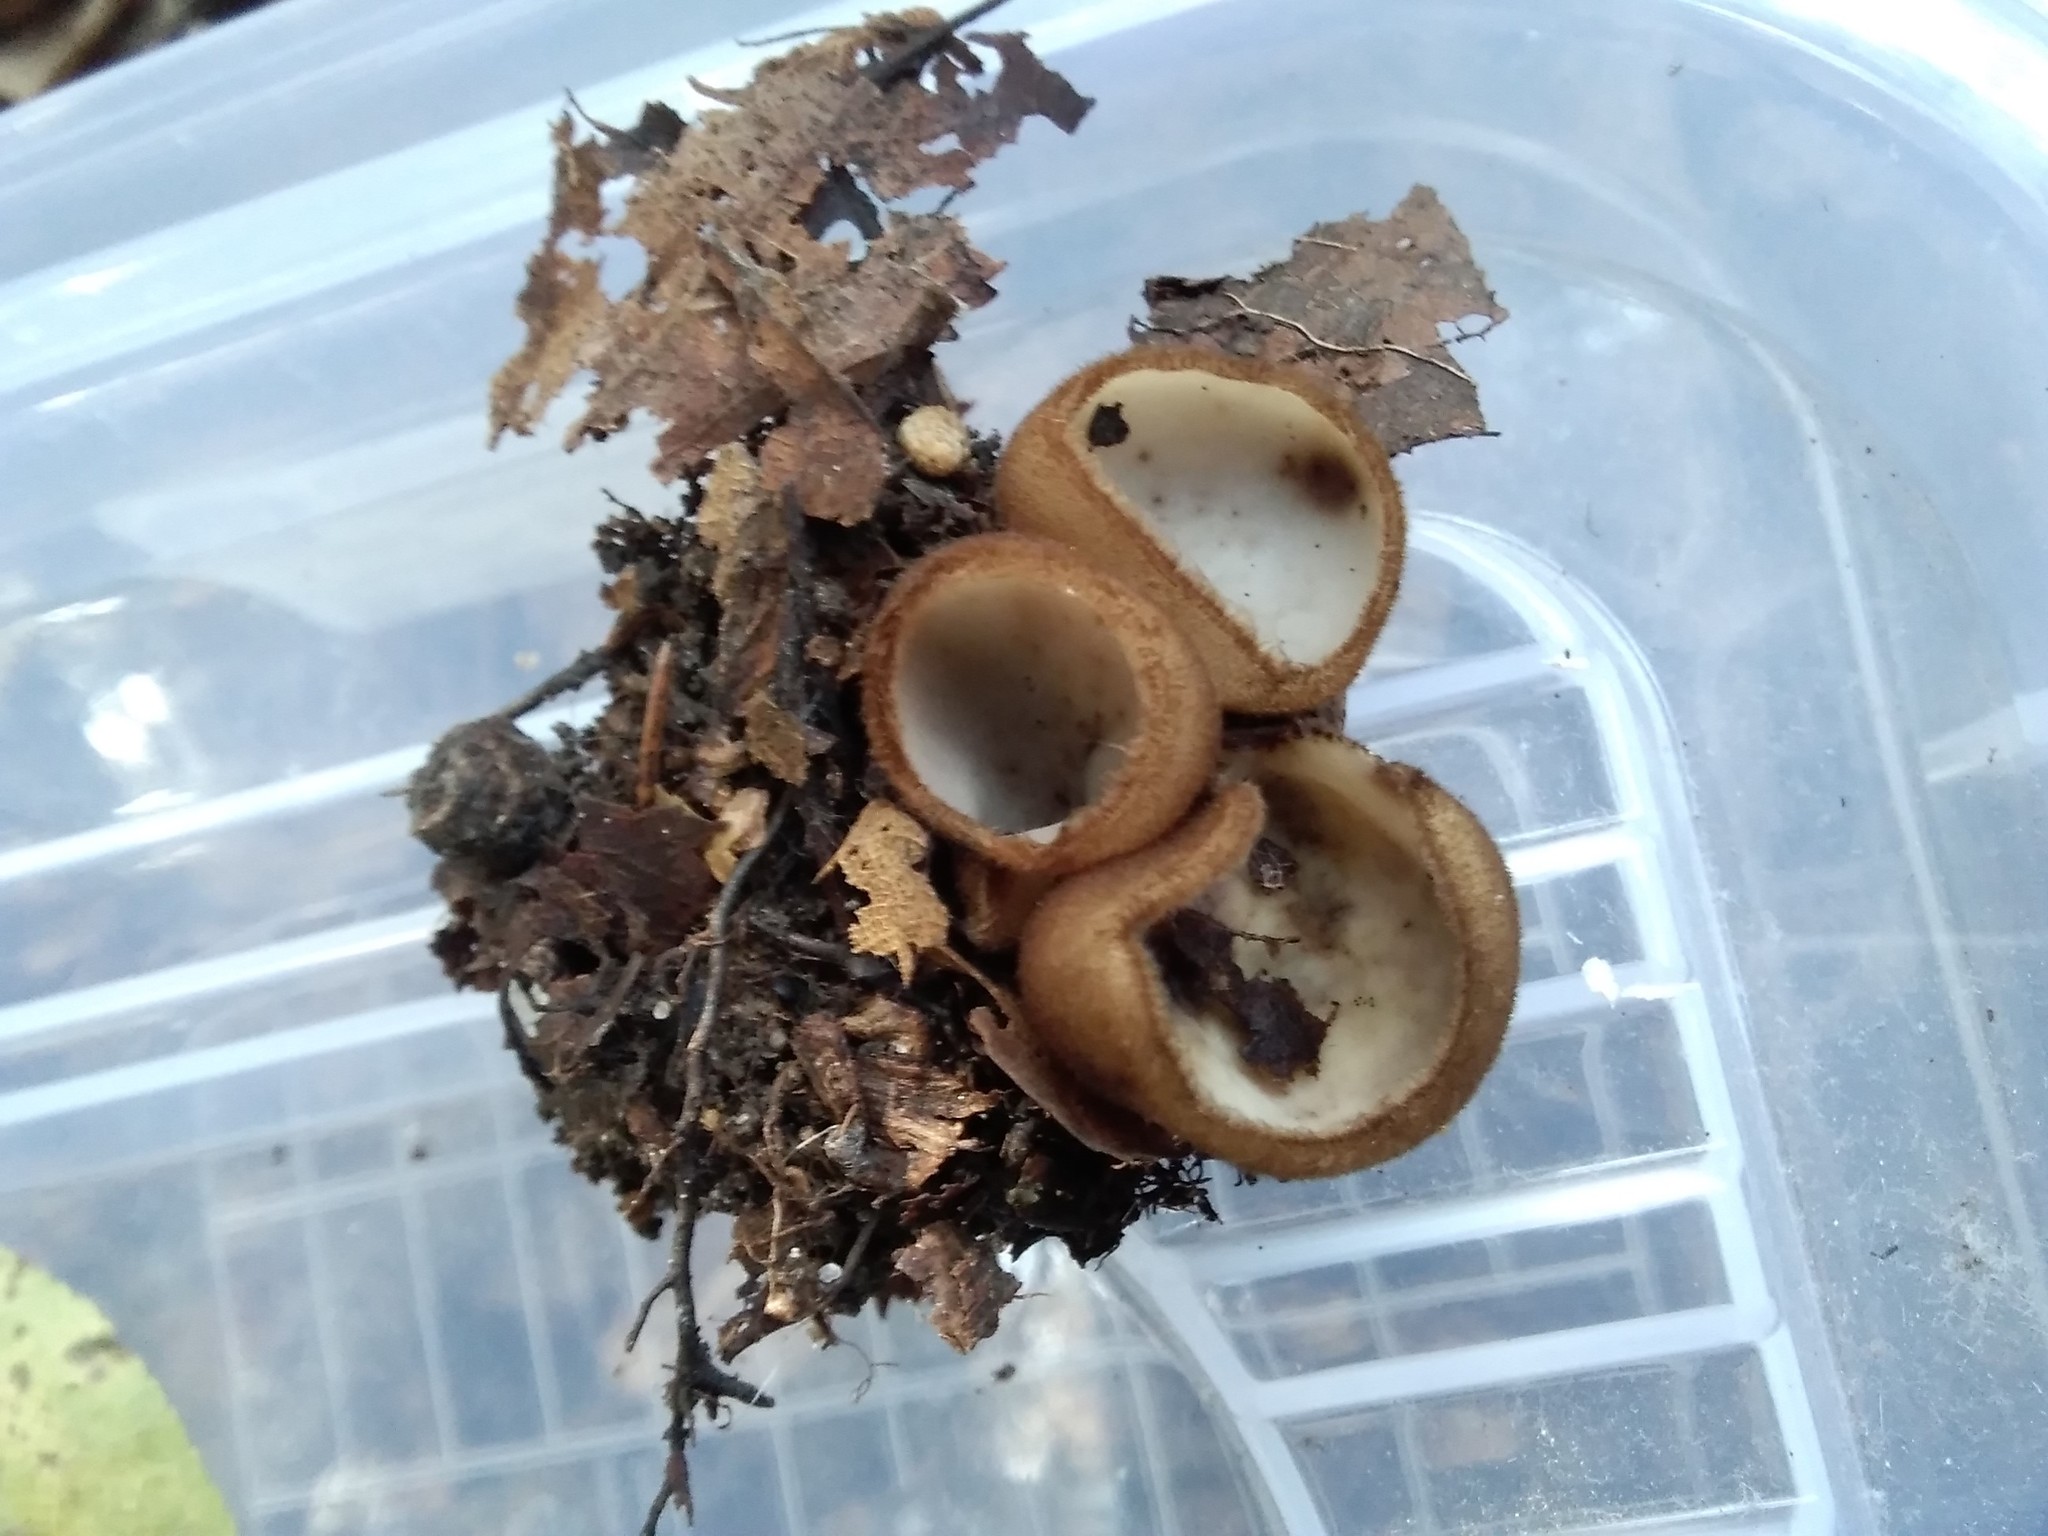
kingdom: Fungi
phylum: Ascomycota
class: Pezizomycetes
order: Pezizales
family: Pyronemataceae
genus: Humaria
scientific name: Humaria hemisphaerica
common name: Glazed cup
